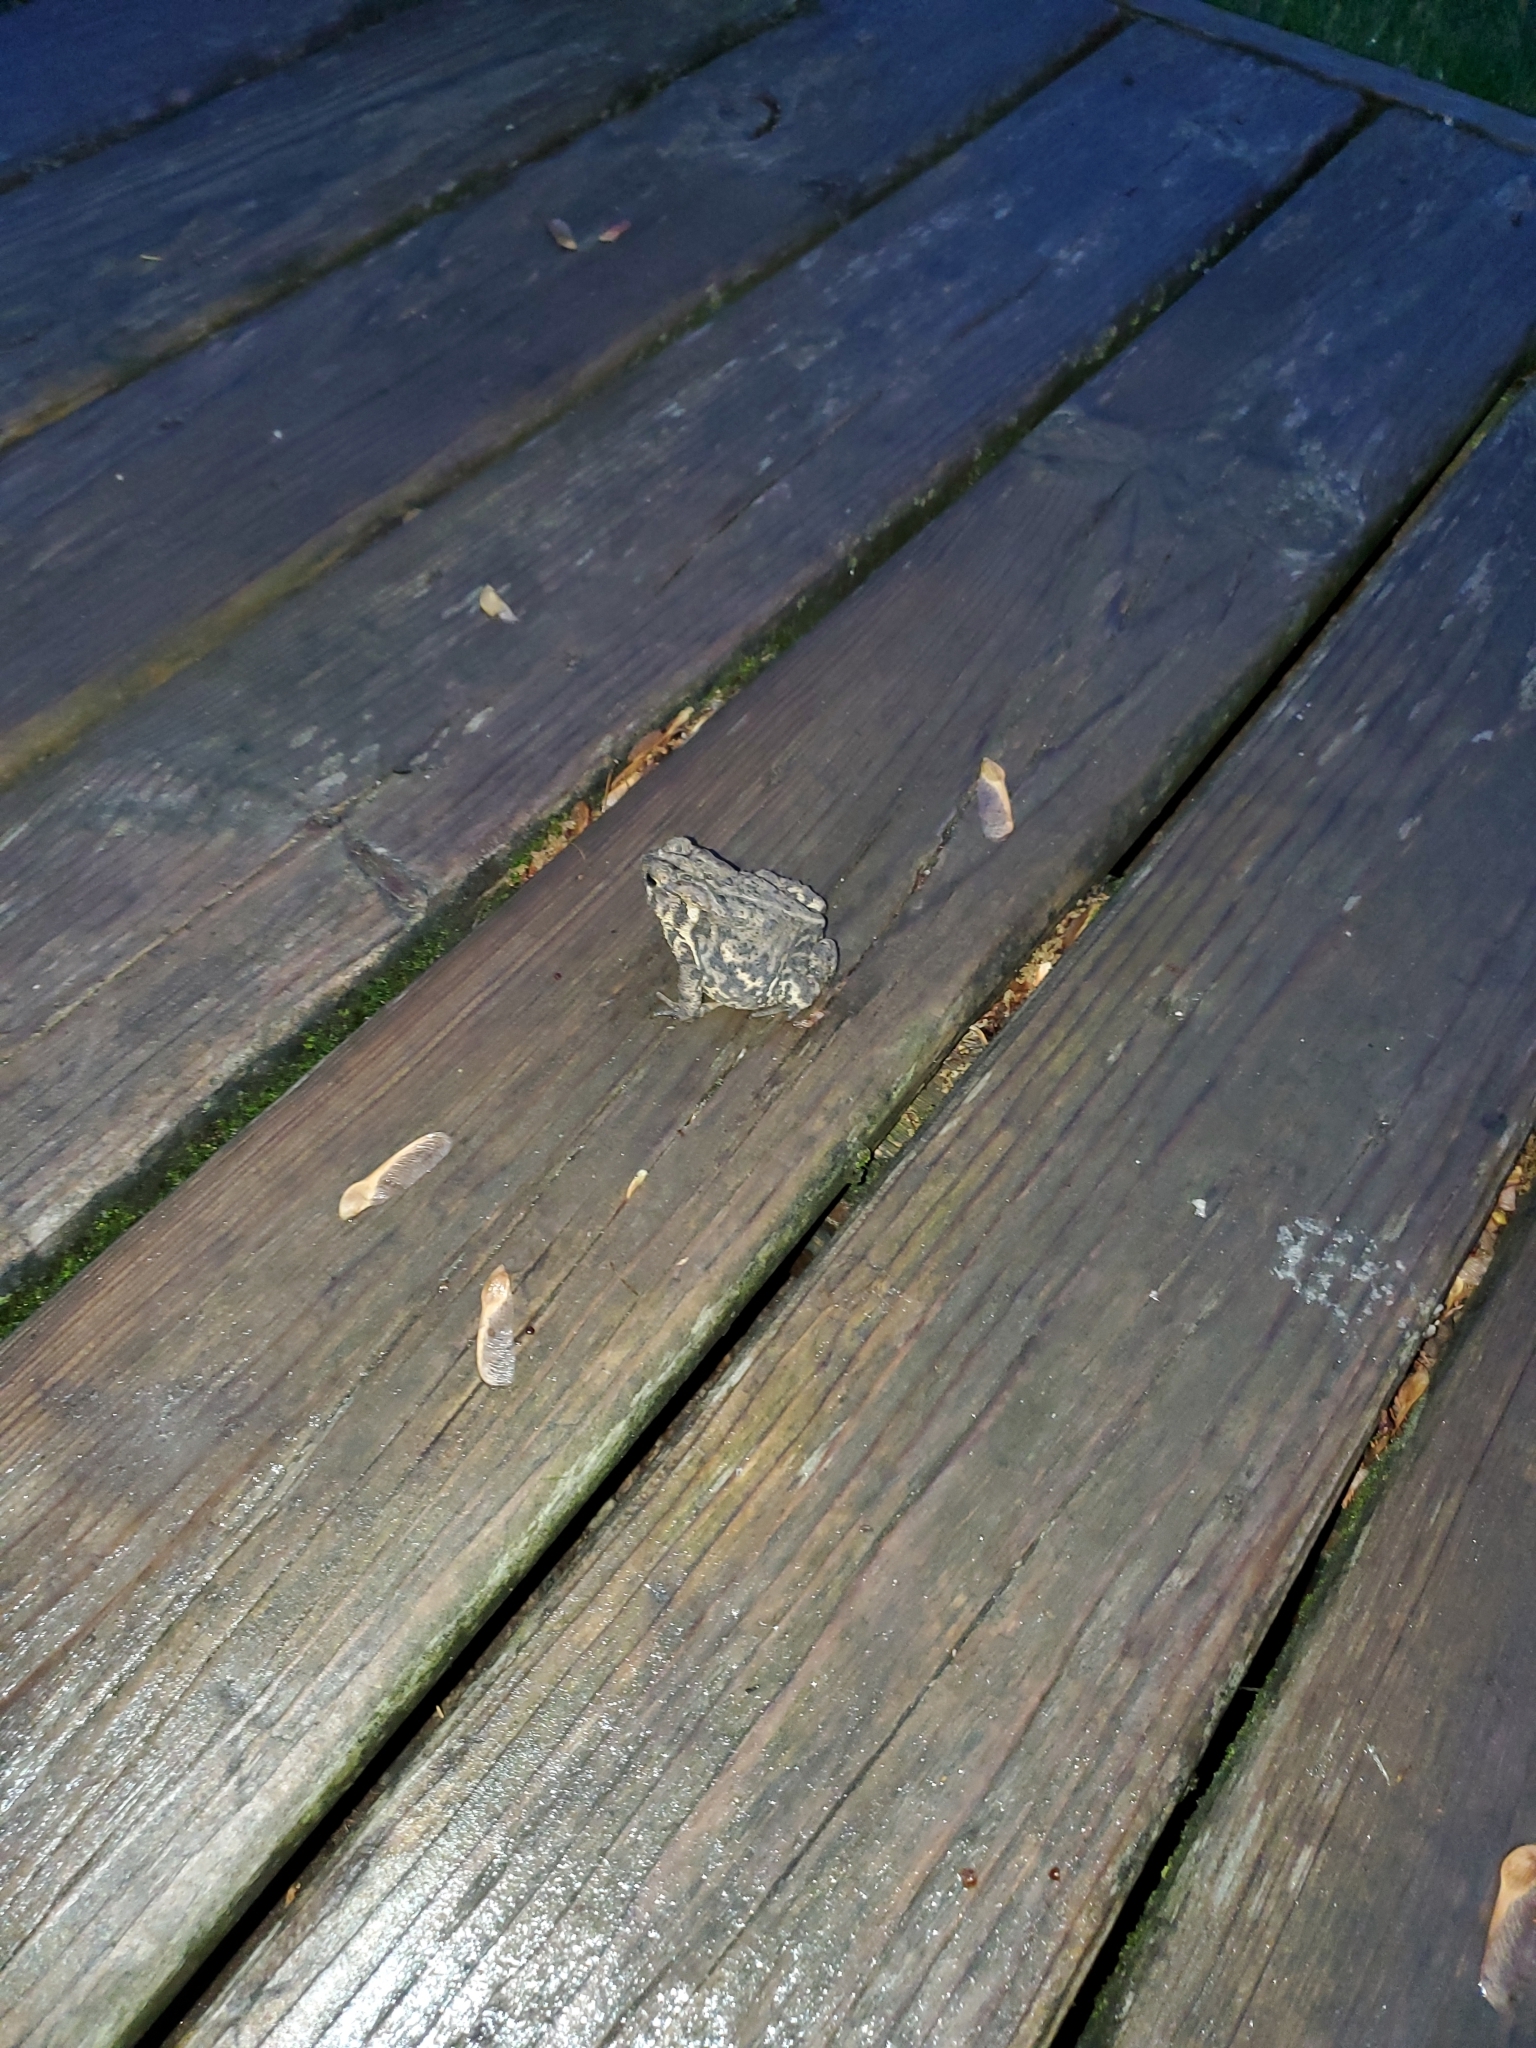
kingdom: Animalia
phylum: Chordata
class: Amphibia
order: Anura
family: Bufonidae
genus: Anaxyrus
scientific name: Anaxyrus americanus
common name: American toad
